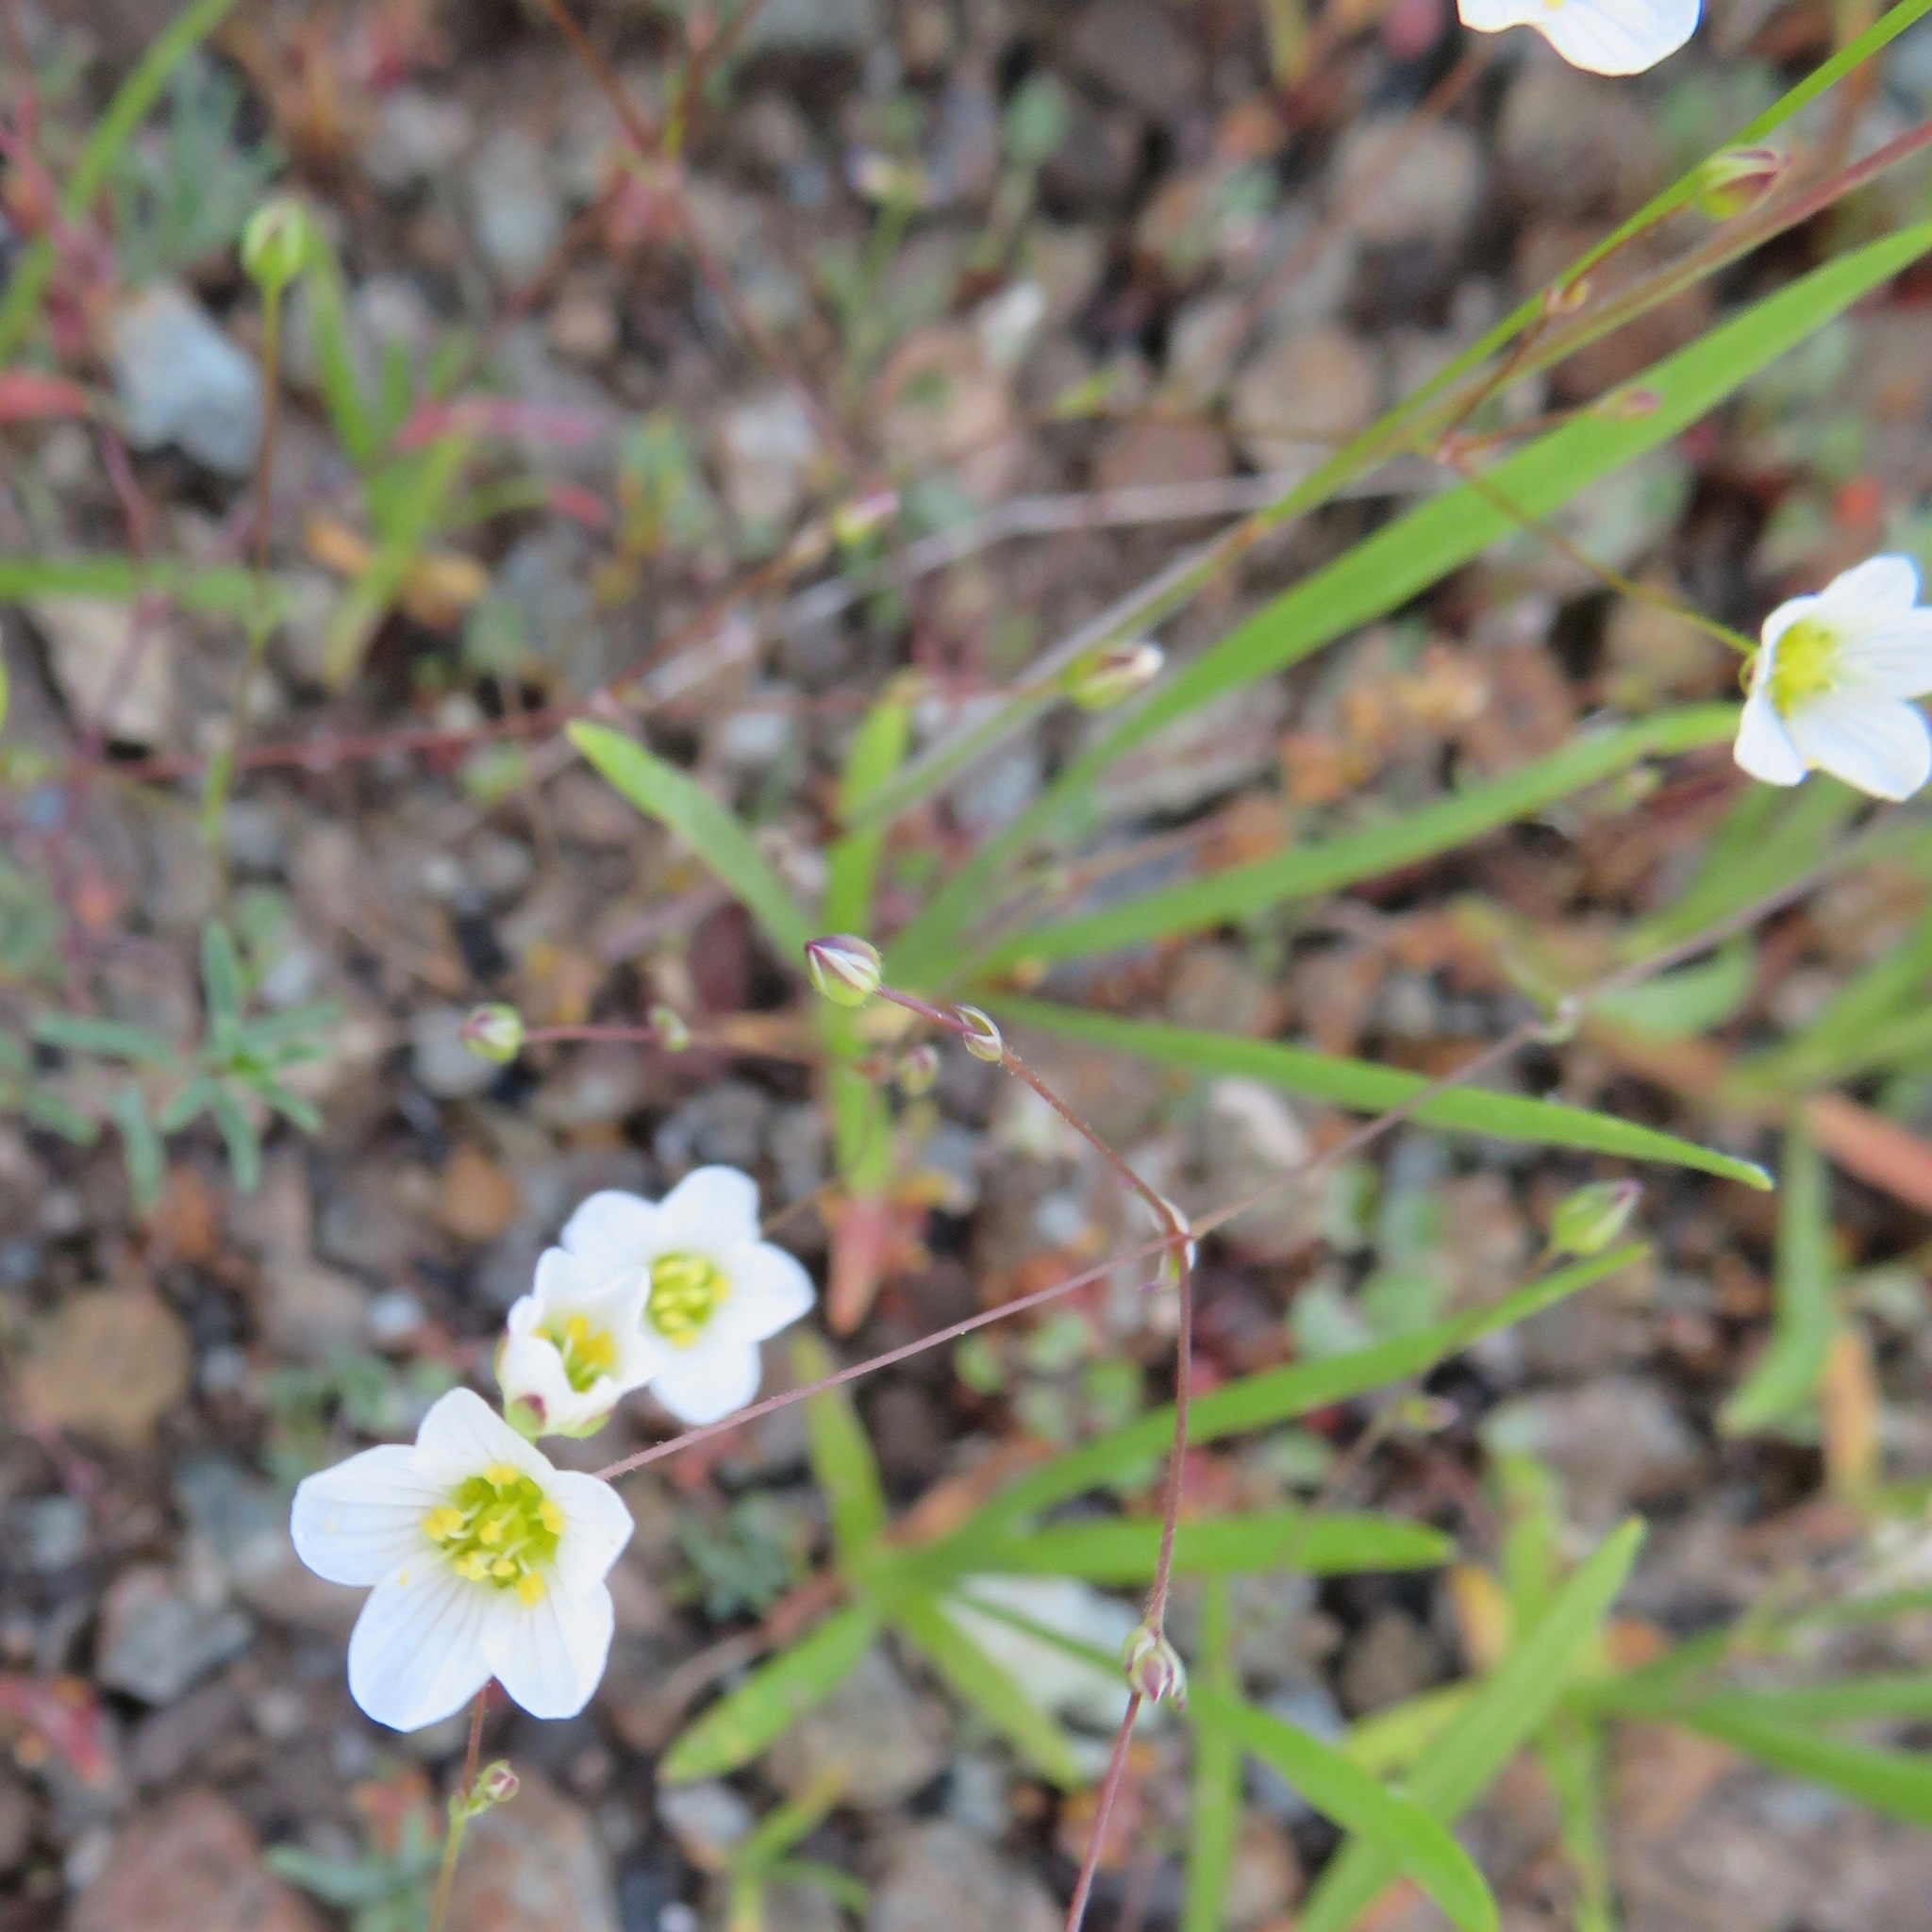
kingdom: Plantae
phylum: Tracheophyta
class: Magnoliopsida
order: Caryophyllales
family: Caryophyllaceae
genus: Sabulina
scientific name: Sabulina douglasii
